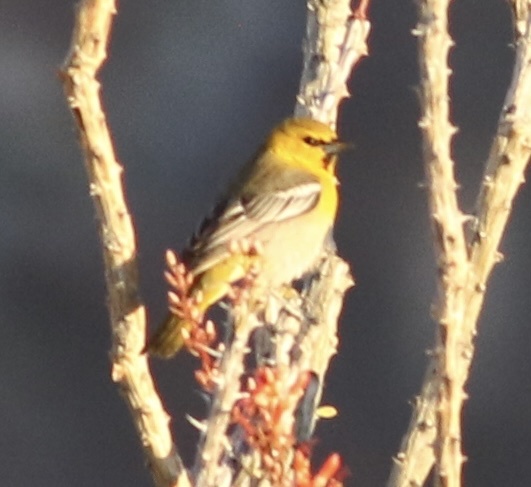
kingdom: Animalia
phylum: Chordata
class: Aves
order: Passeriformes
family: Icteridae
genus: Icterus
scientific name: Icterus bullockii
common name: Bullock's oriole
